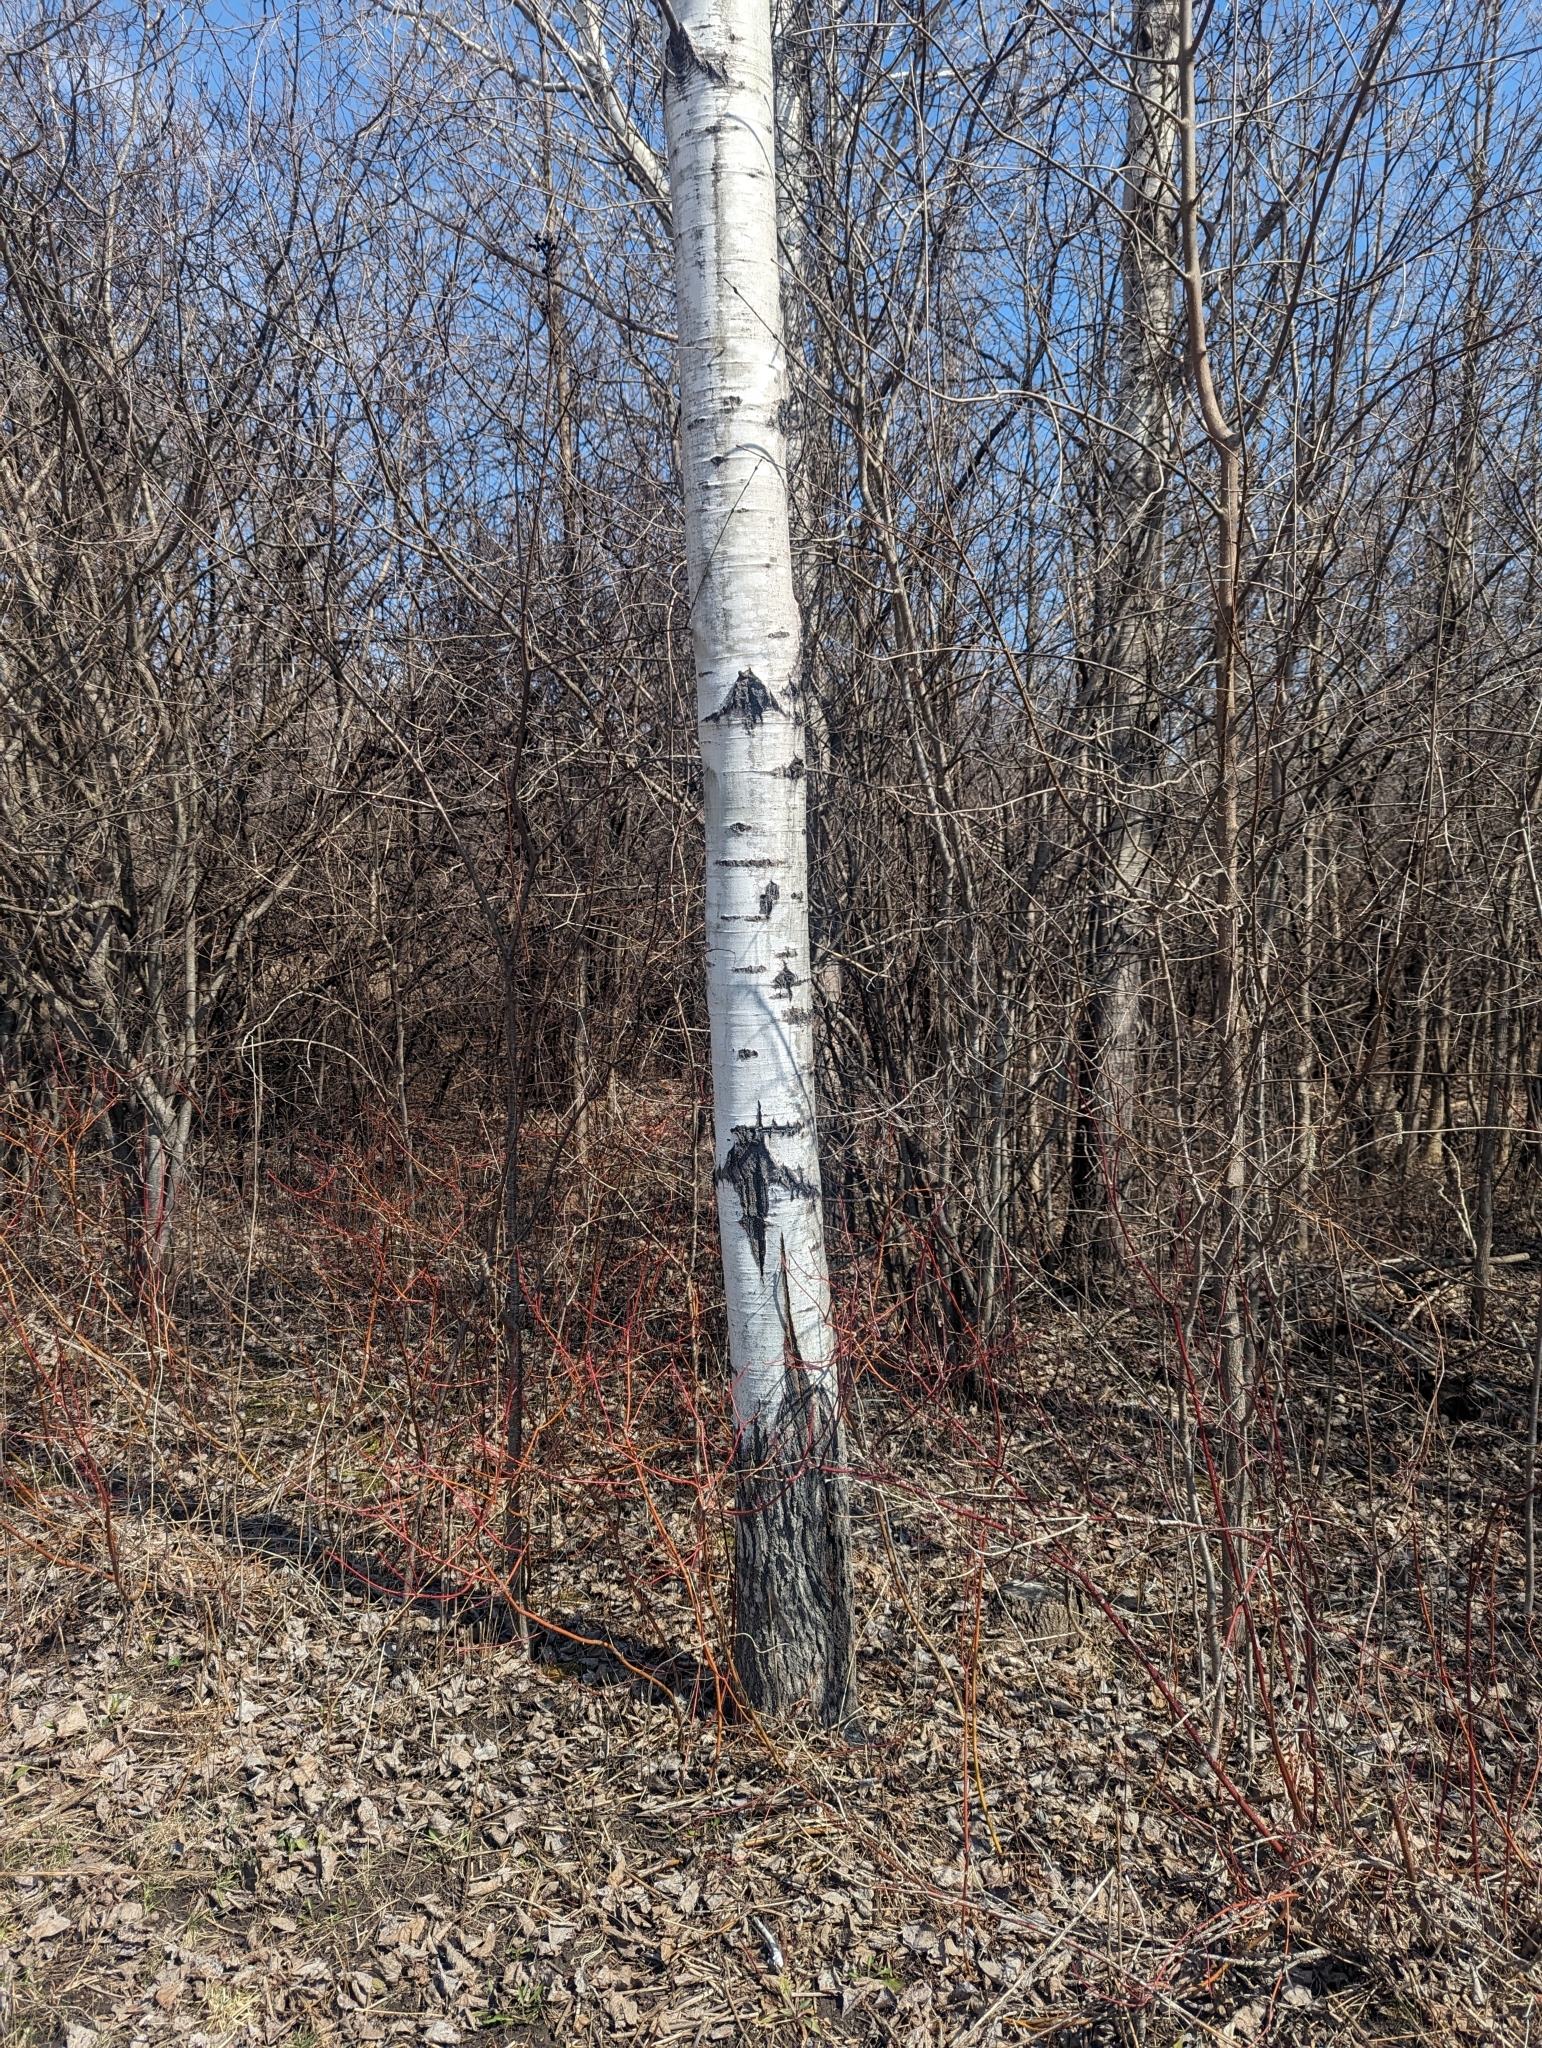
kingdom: Plantae
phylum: Tracheophyta
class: Magnoliopsida
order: Malpighiales
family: Salicaceae
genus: Populus
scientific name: Populus tremuloides
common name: Quaking aspen
